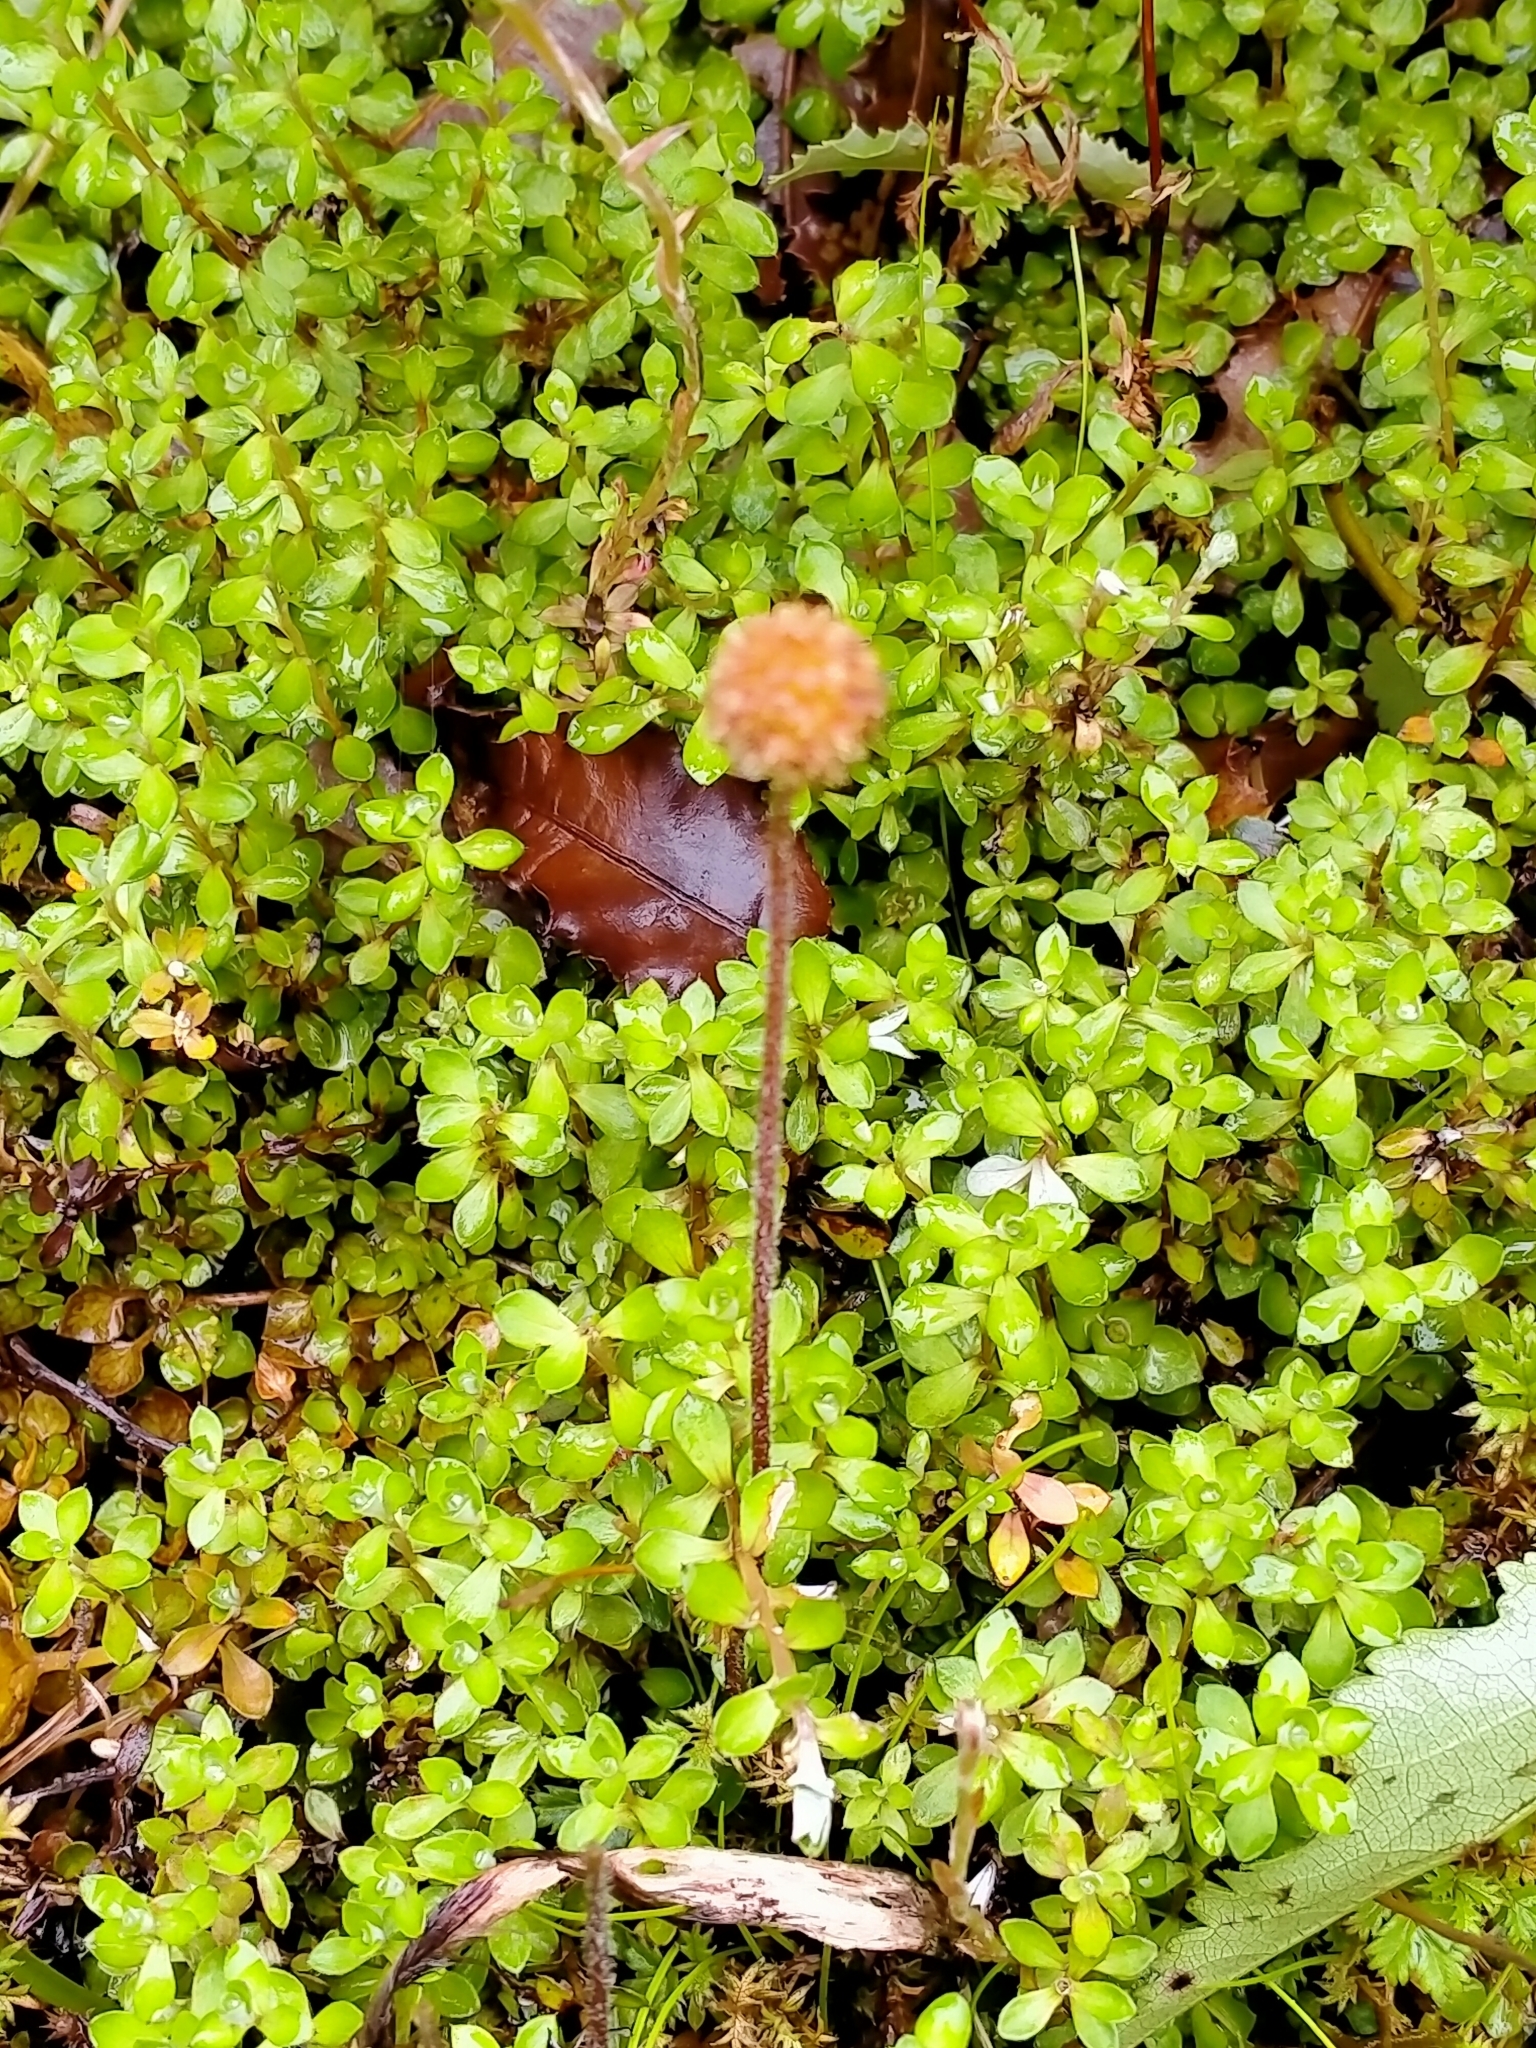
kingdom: Plantae
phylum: Tracheophyta
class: Magnoliopsida
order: Rosales
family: Rosaceae
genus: Acaena
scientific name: Acaena anserinifolia
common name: Bronze pirri-pirri-bur
